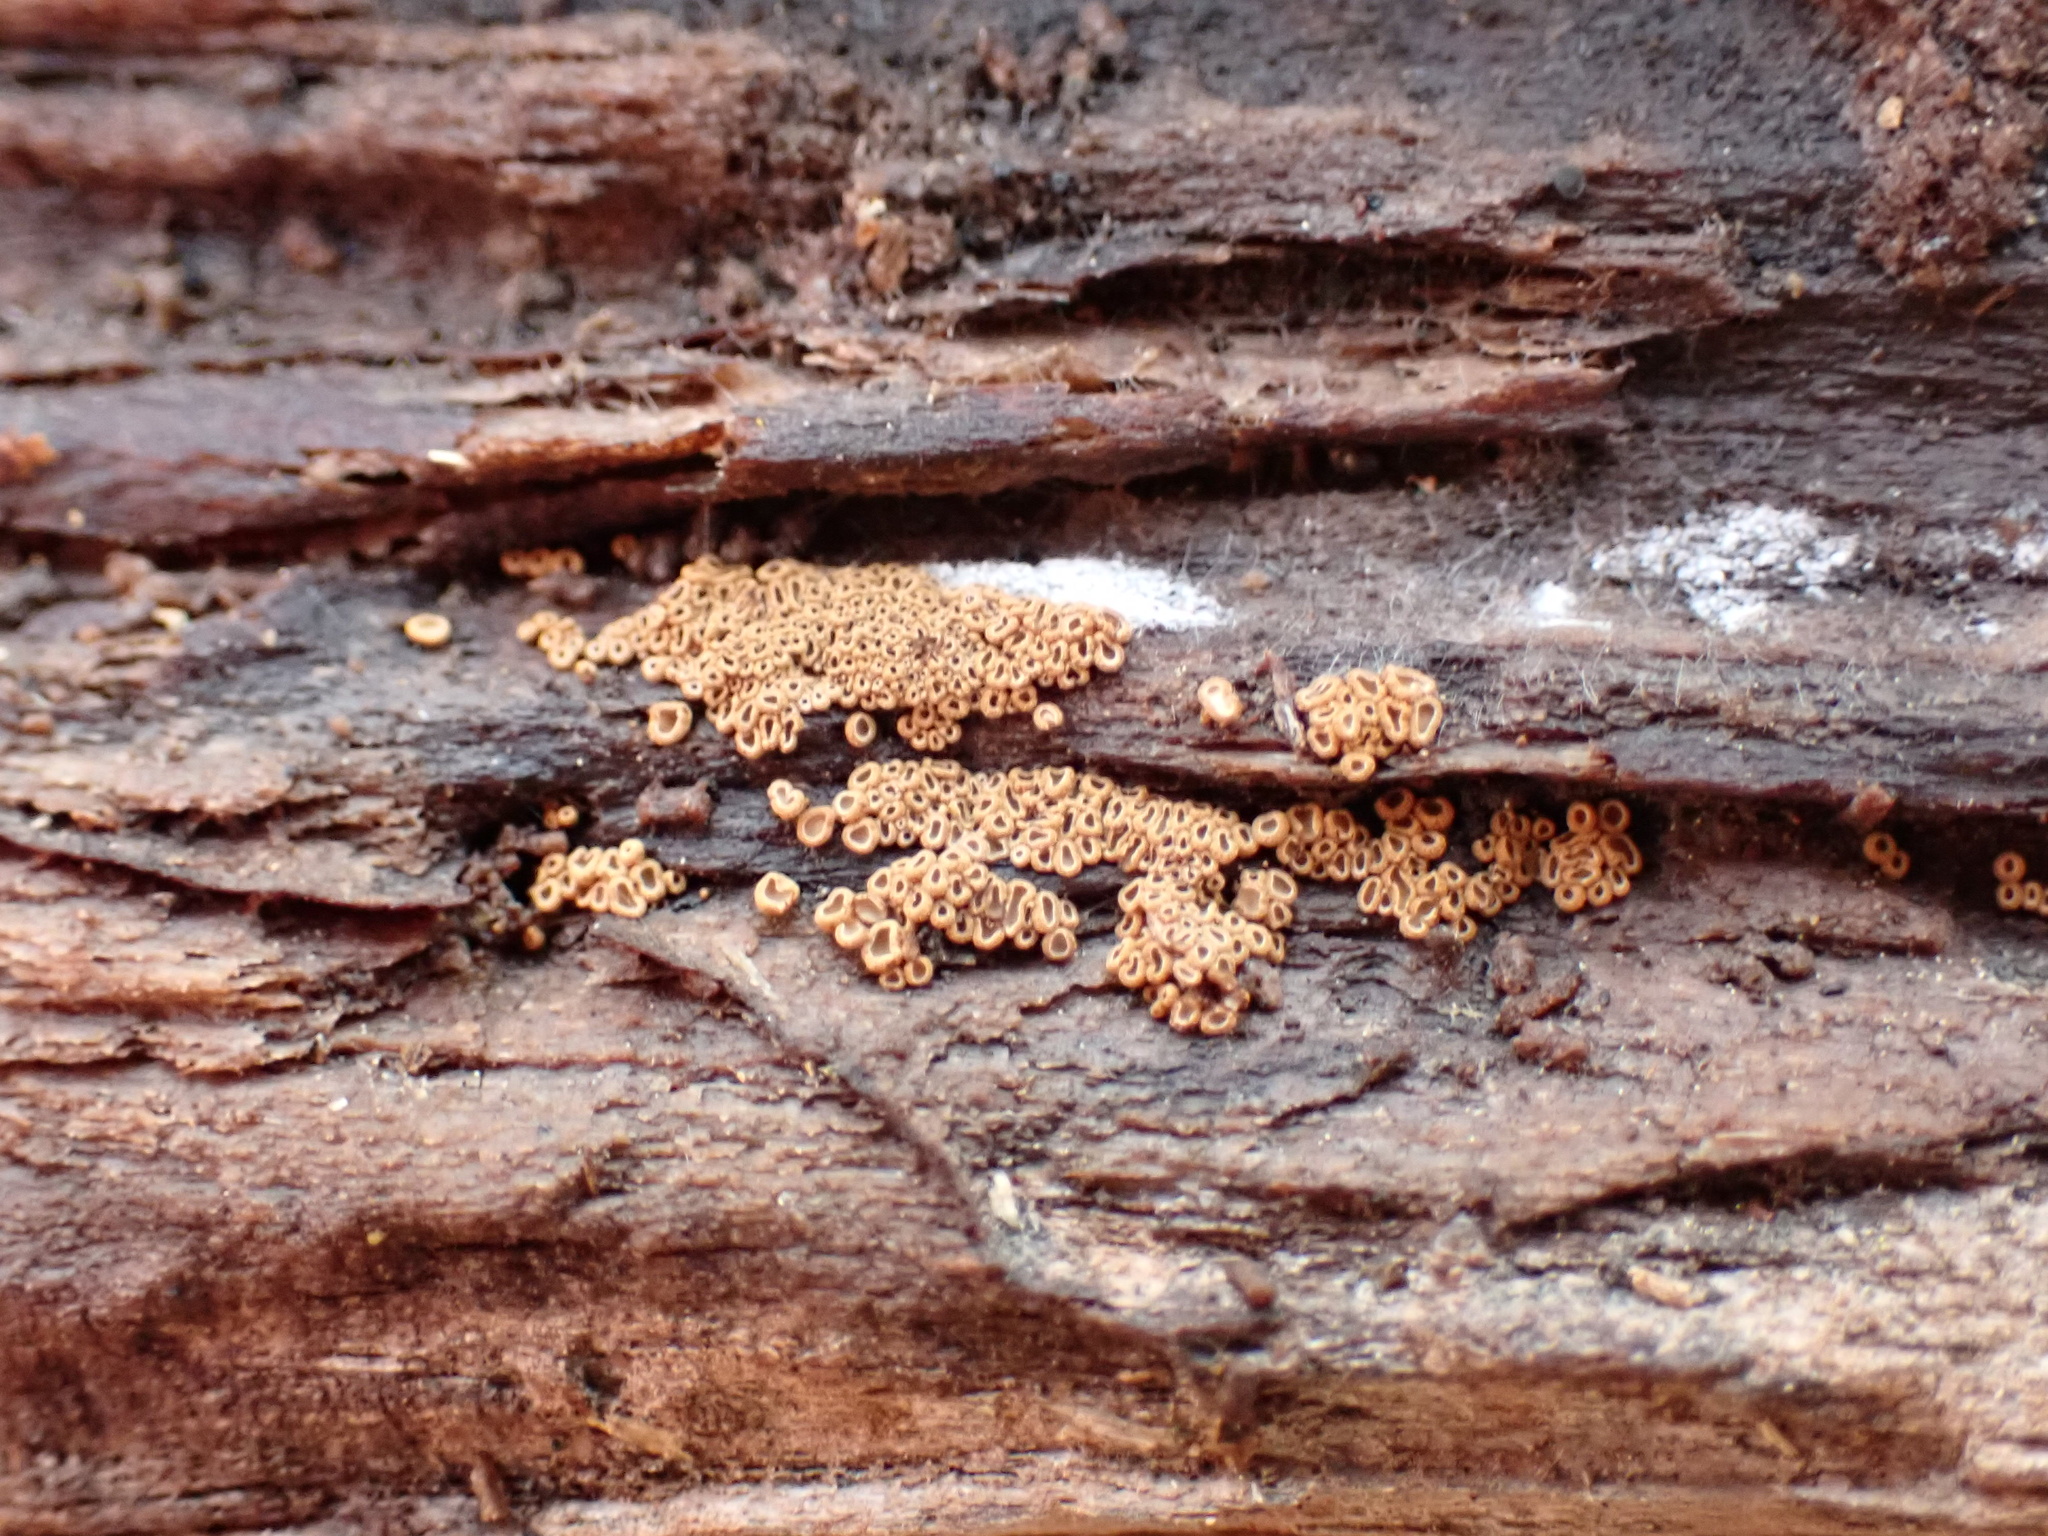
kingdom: Fungi
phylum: Basidiomycota
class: Agaricomycetes
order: Agaricales
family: Niaceae
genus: Merismodes
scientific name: Merismodes fasciculata
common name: Crowded cuplet
